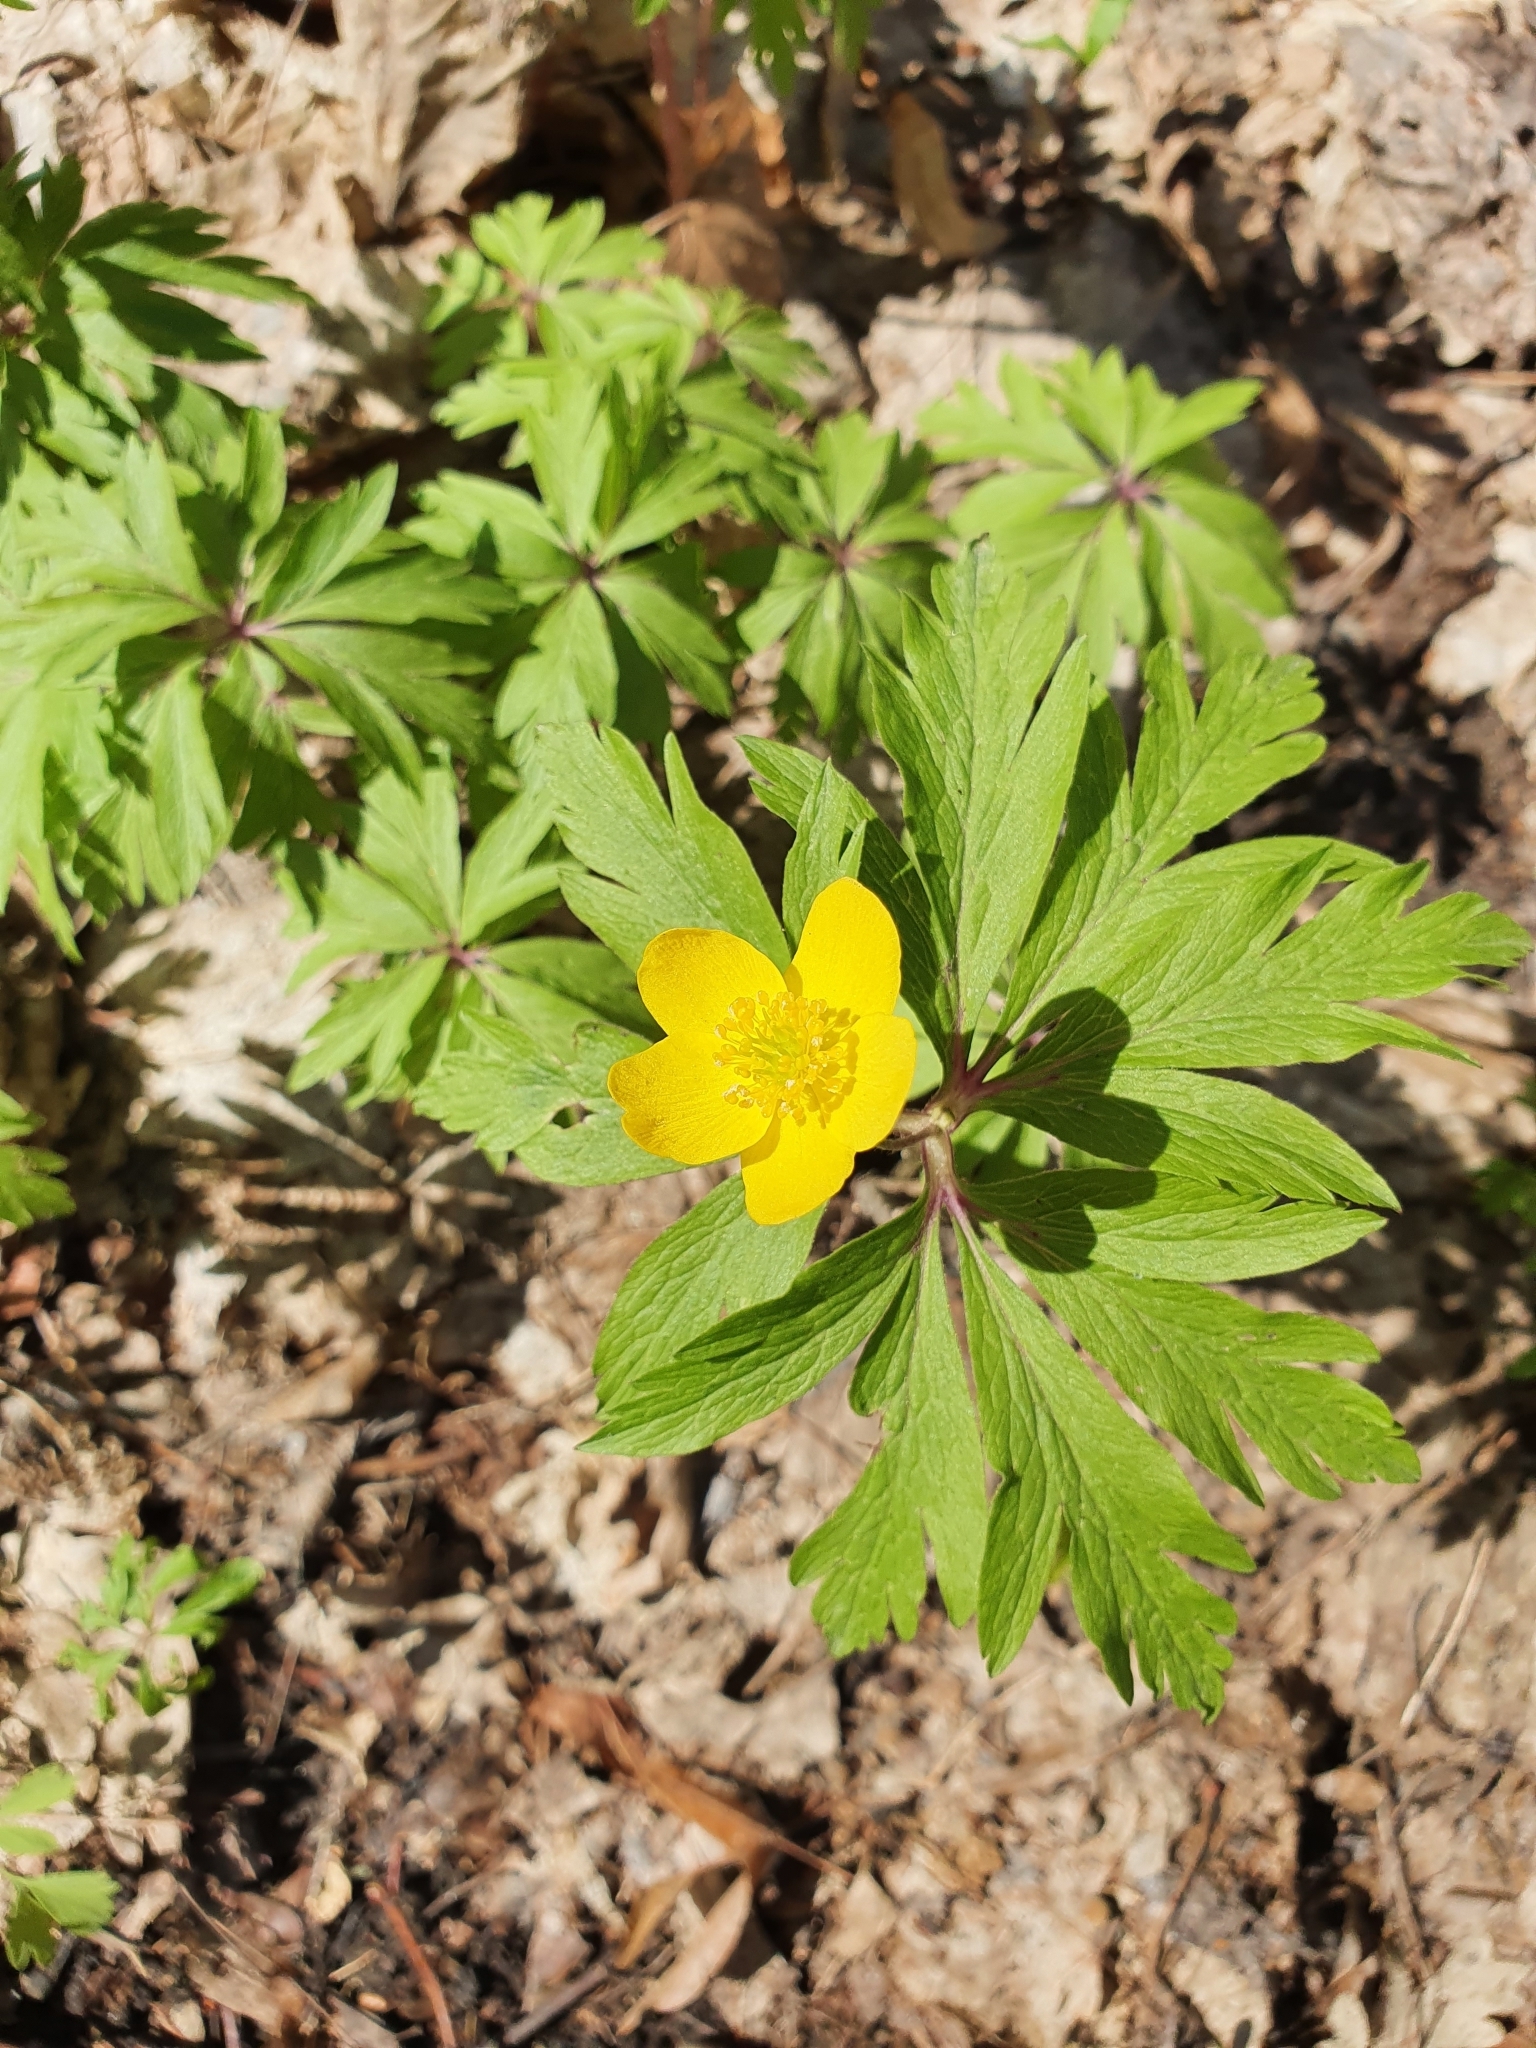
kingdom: Plantae
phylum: Tracheophyta
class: Magnoliopsida
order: Ranunculales
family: Ranunculaceae
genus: Anemone
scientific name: Anemone ranunculoides
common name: Yellow anemone
